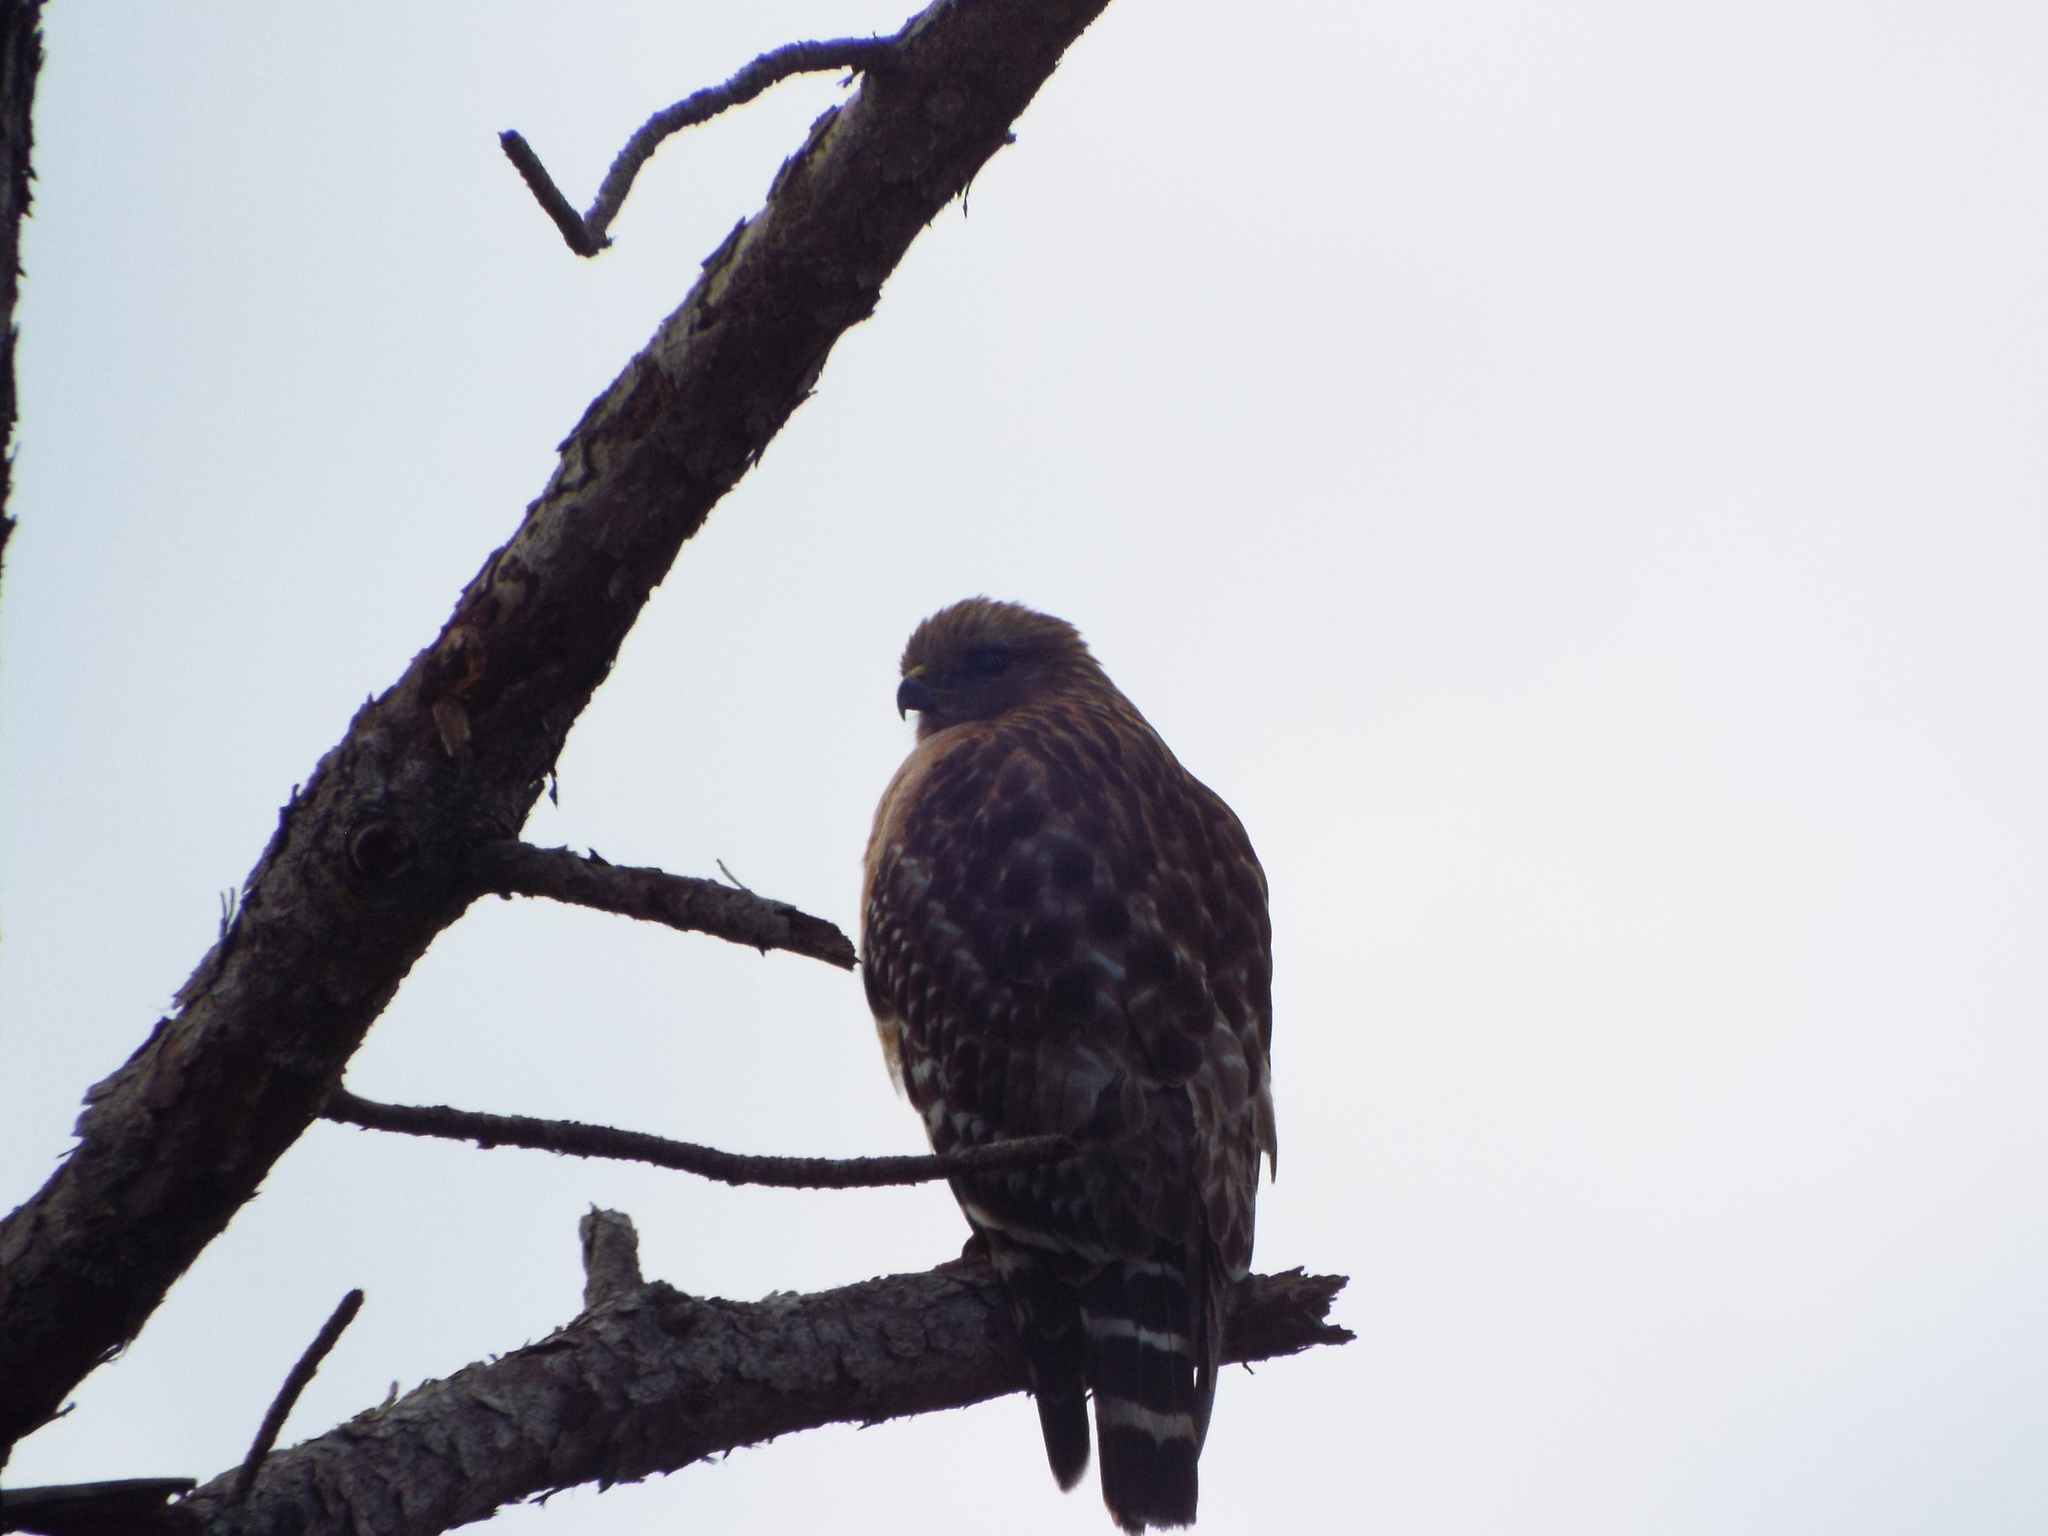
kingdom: Animalia
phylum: Chordata
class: Aves
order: Accipitriformes
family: Accipitridae
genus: Buteo
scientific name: Buteo lineatus
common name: Red-shouldered hawk
